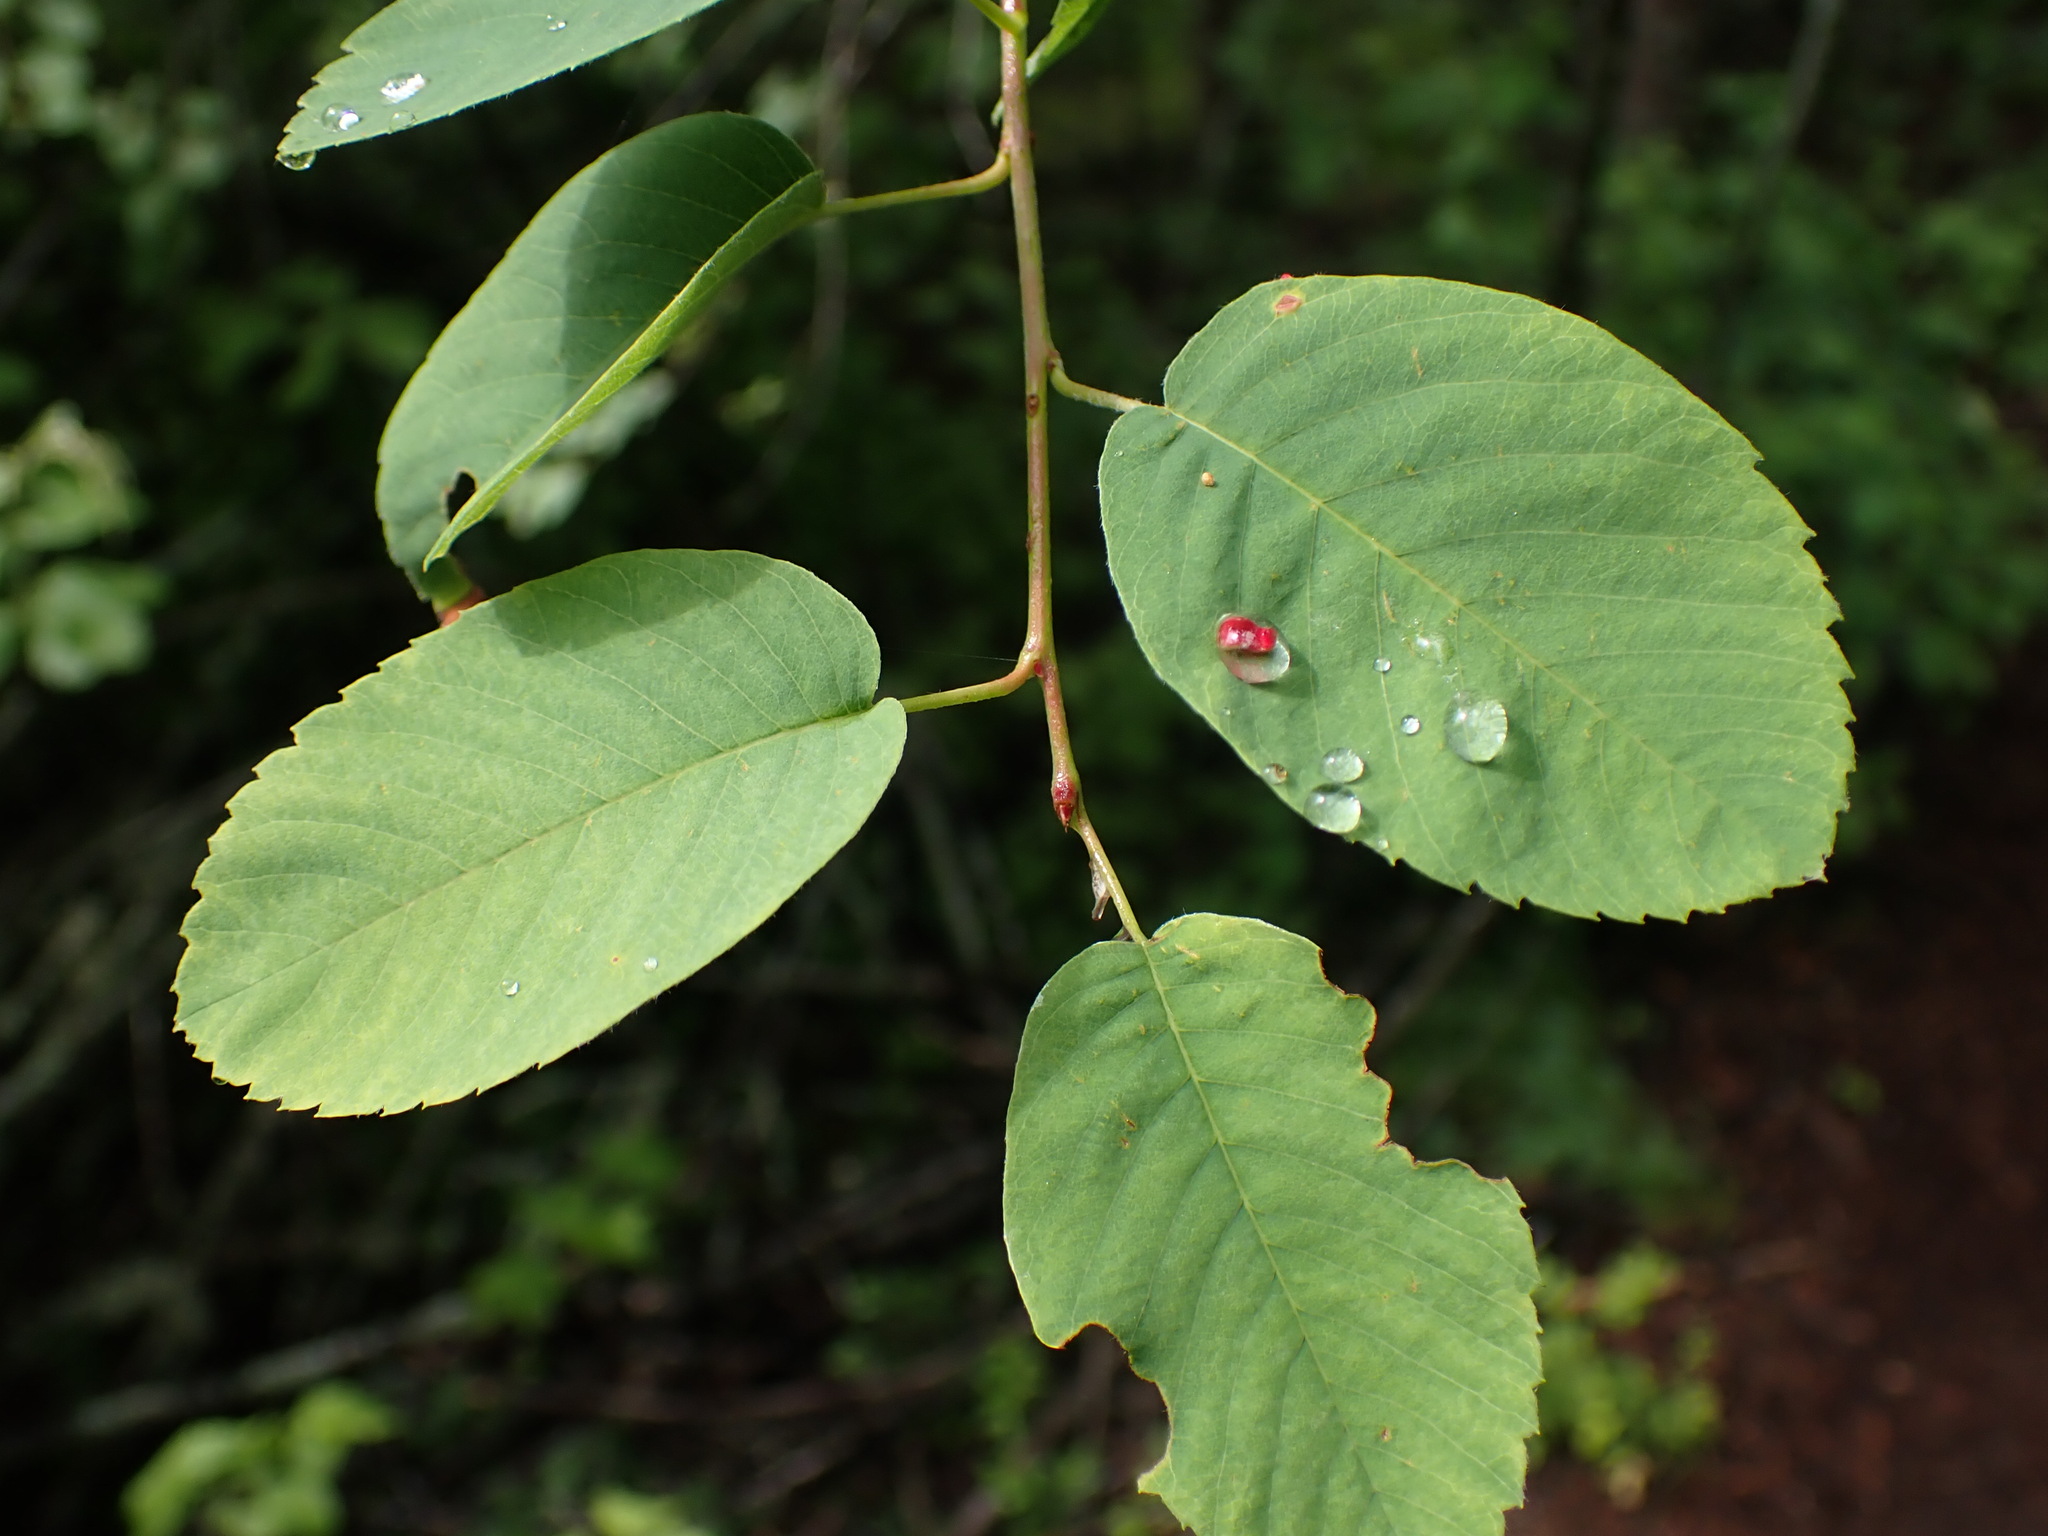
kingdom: Plantae
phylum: Tracheophyta
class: Magnoliopsida
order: Rosales
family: Rosaceae
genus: Amelanchier
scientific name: Amelanchier alnifolia
